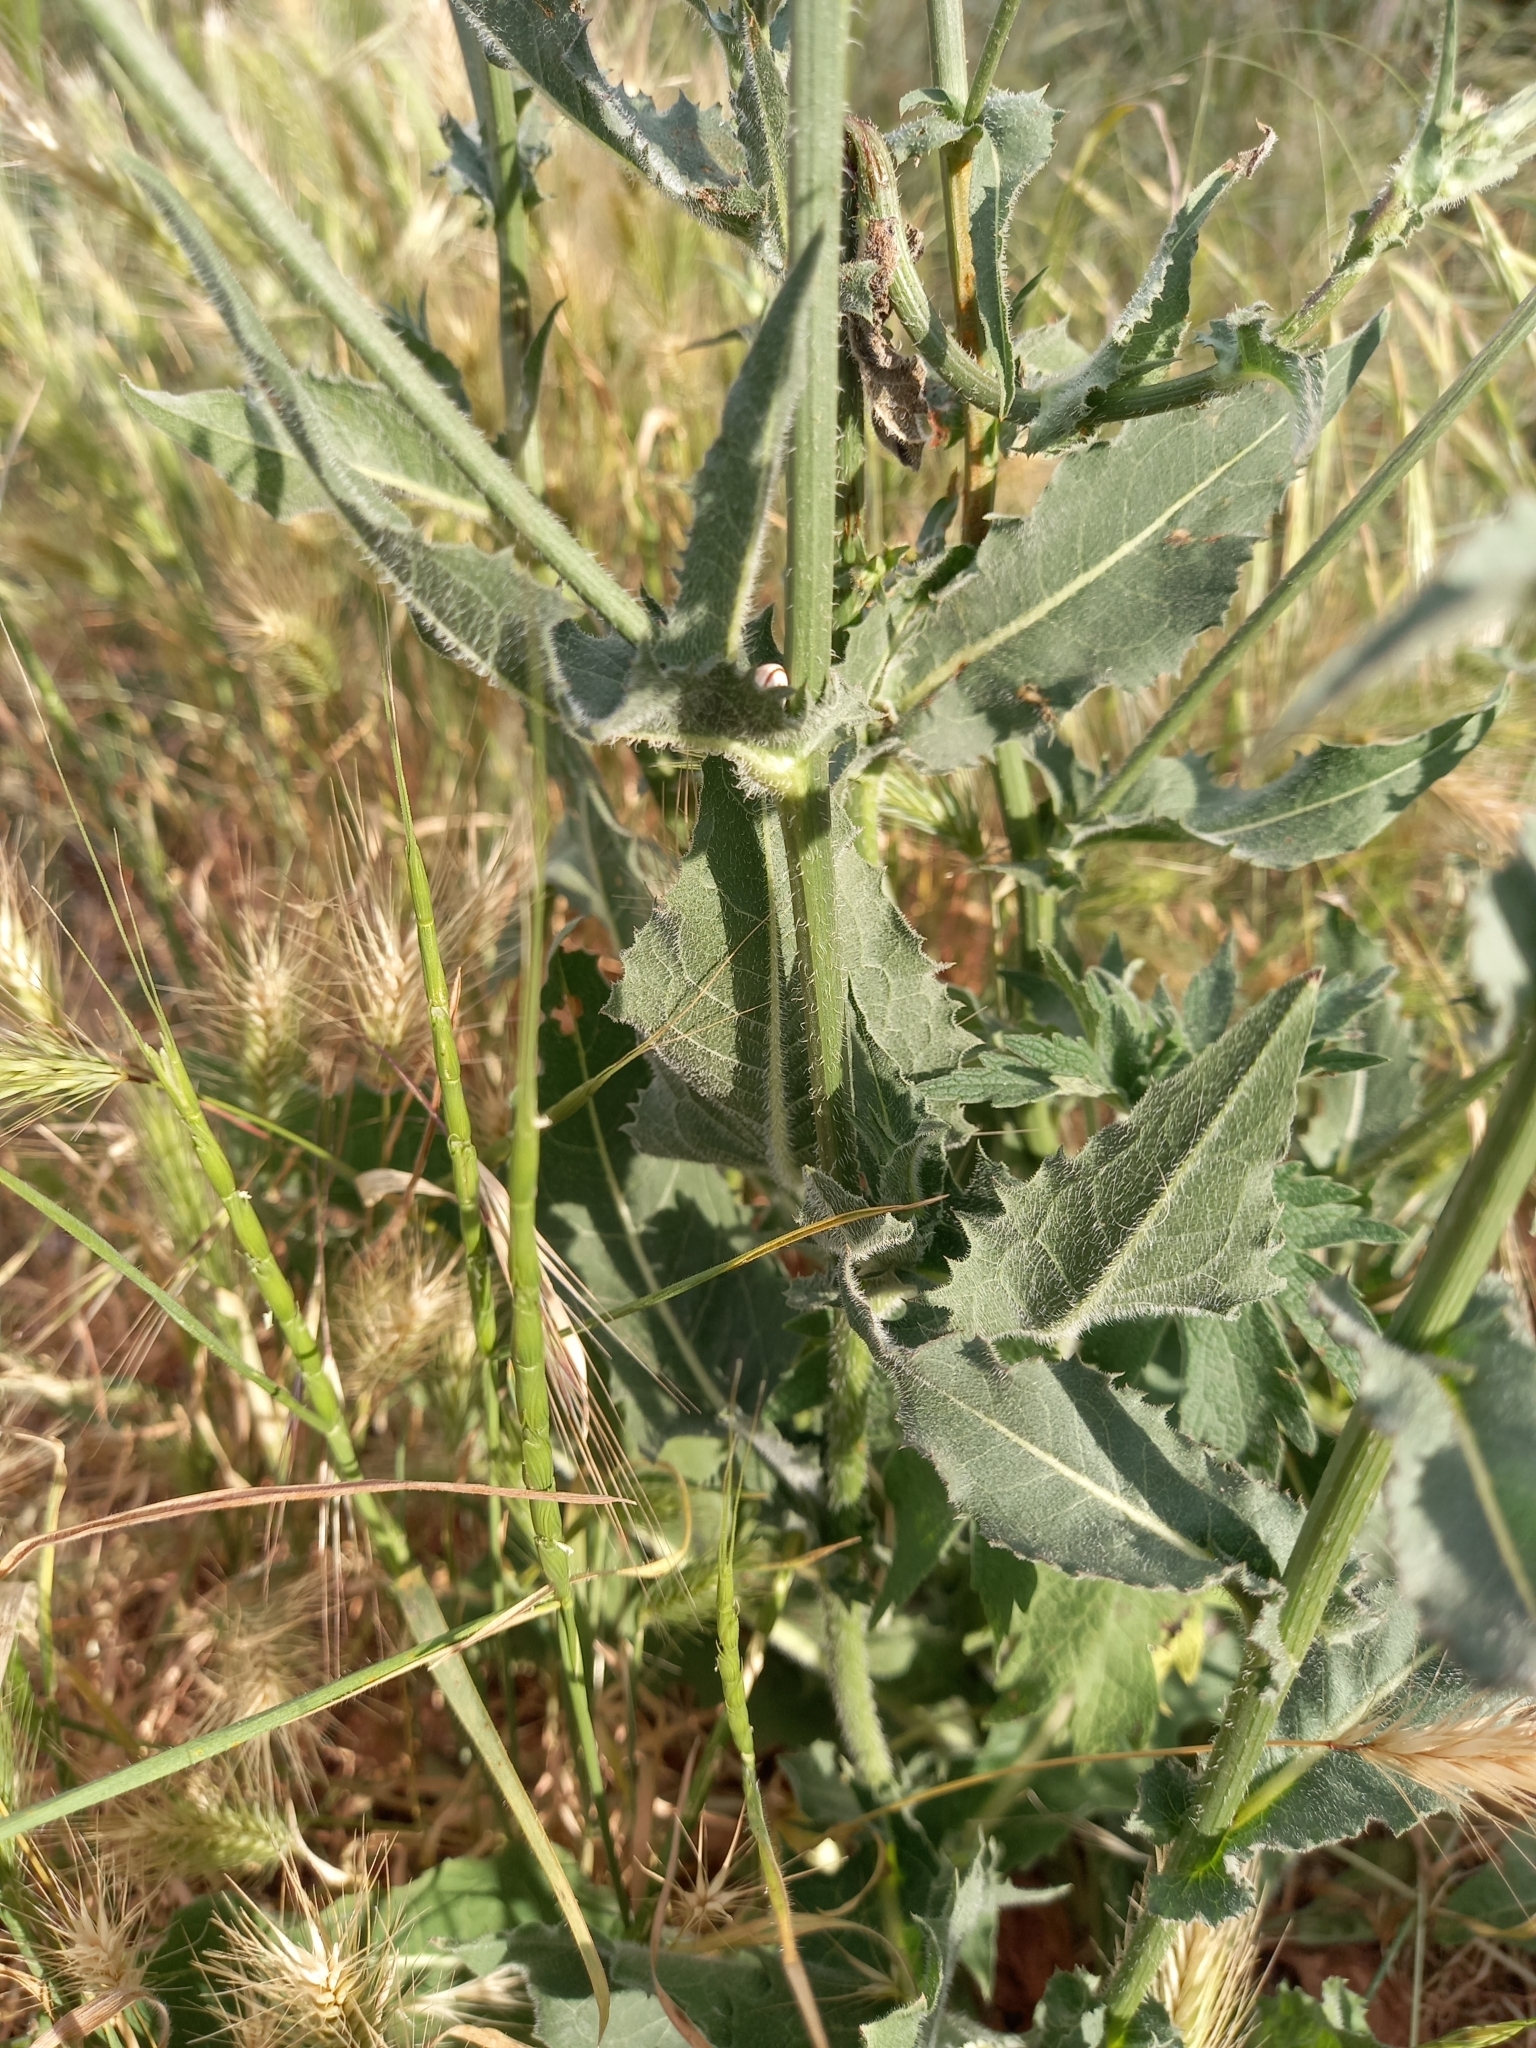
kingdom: Plantae
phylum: Tracheophyta
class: Magnoliopsida
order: Asterales
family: Asteraceae
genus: Cichorium
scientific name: Cichorium intybus
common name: Chicory
